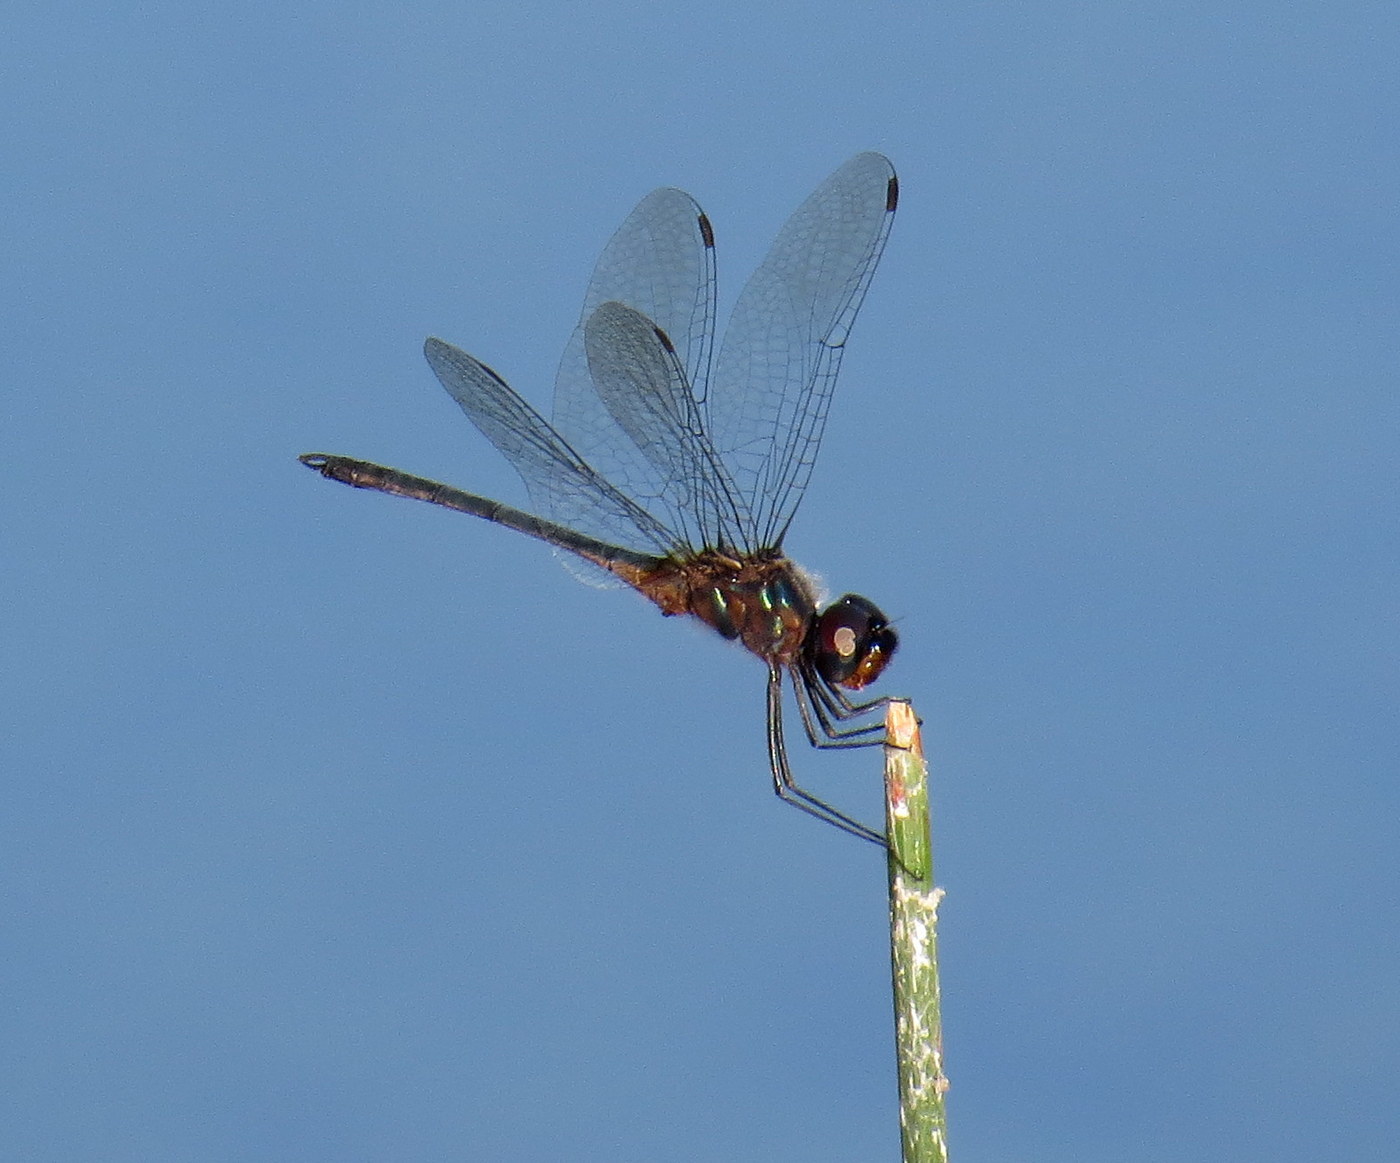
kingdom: Animalia
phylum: Arthropoda
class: Insecta
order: Odonata
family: Libellulidae
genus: Idiataphe
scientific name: Idiataphe cubensis
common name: Metallic pennant
